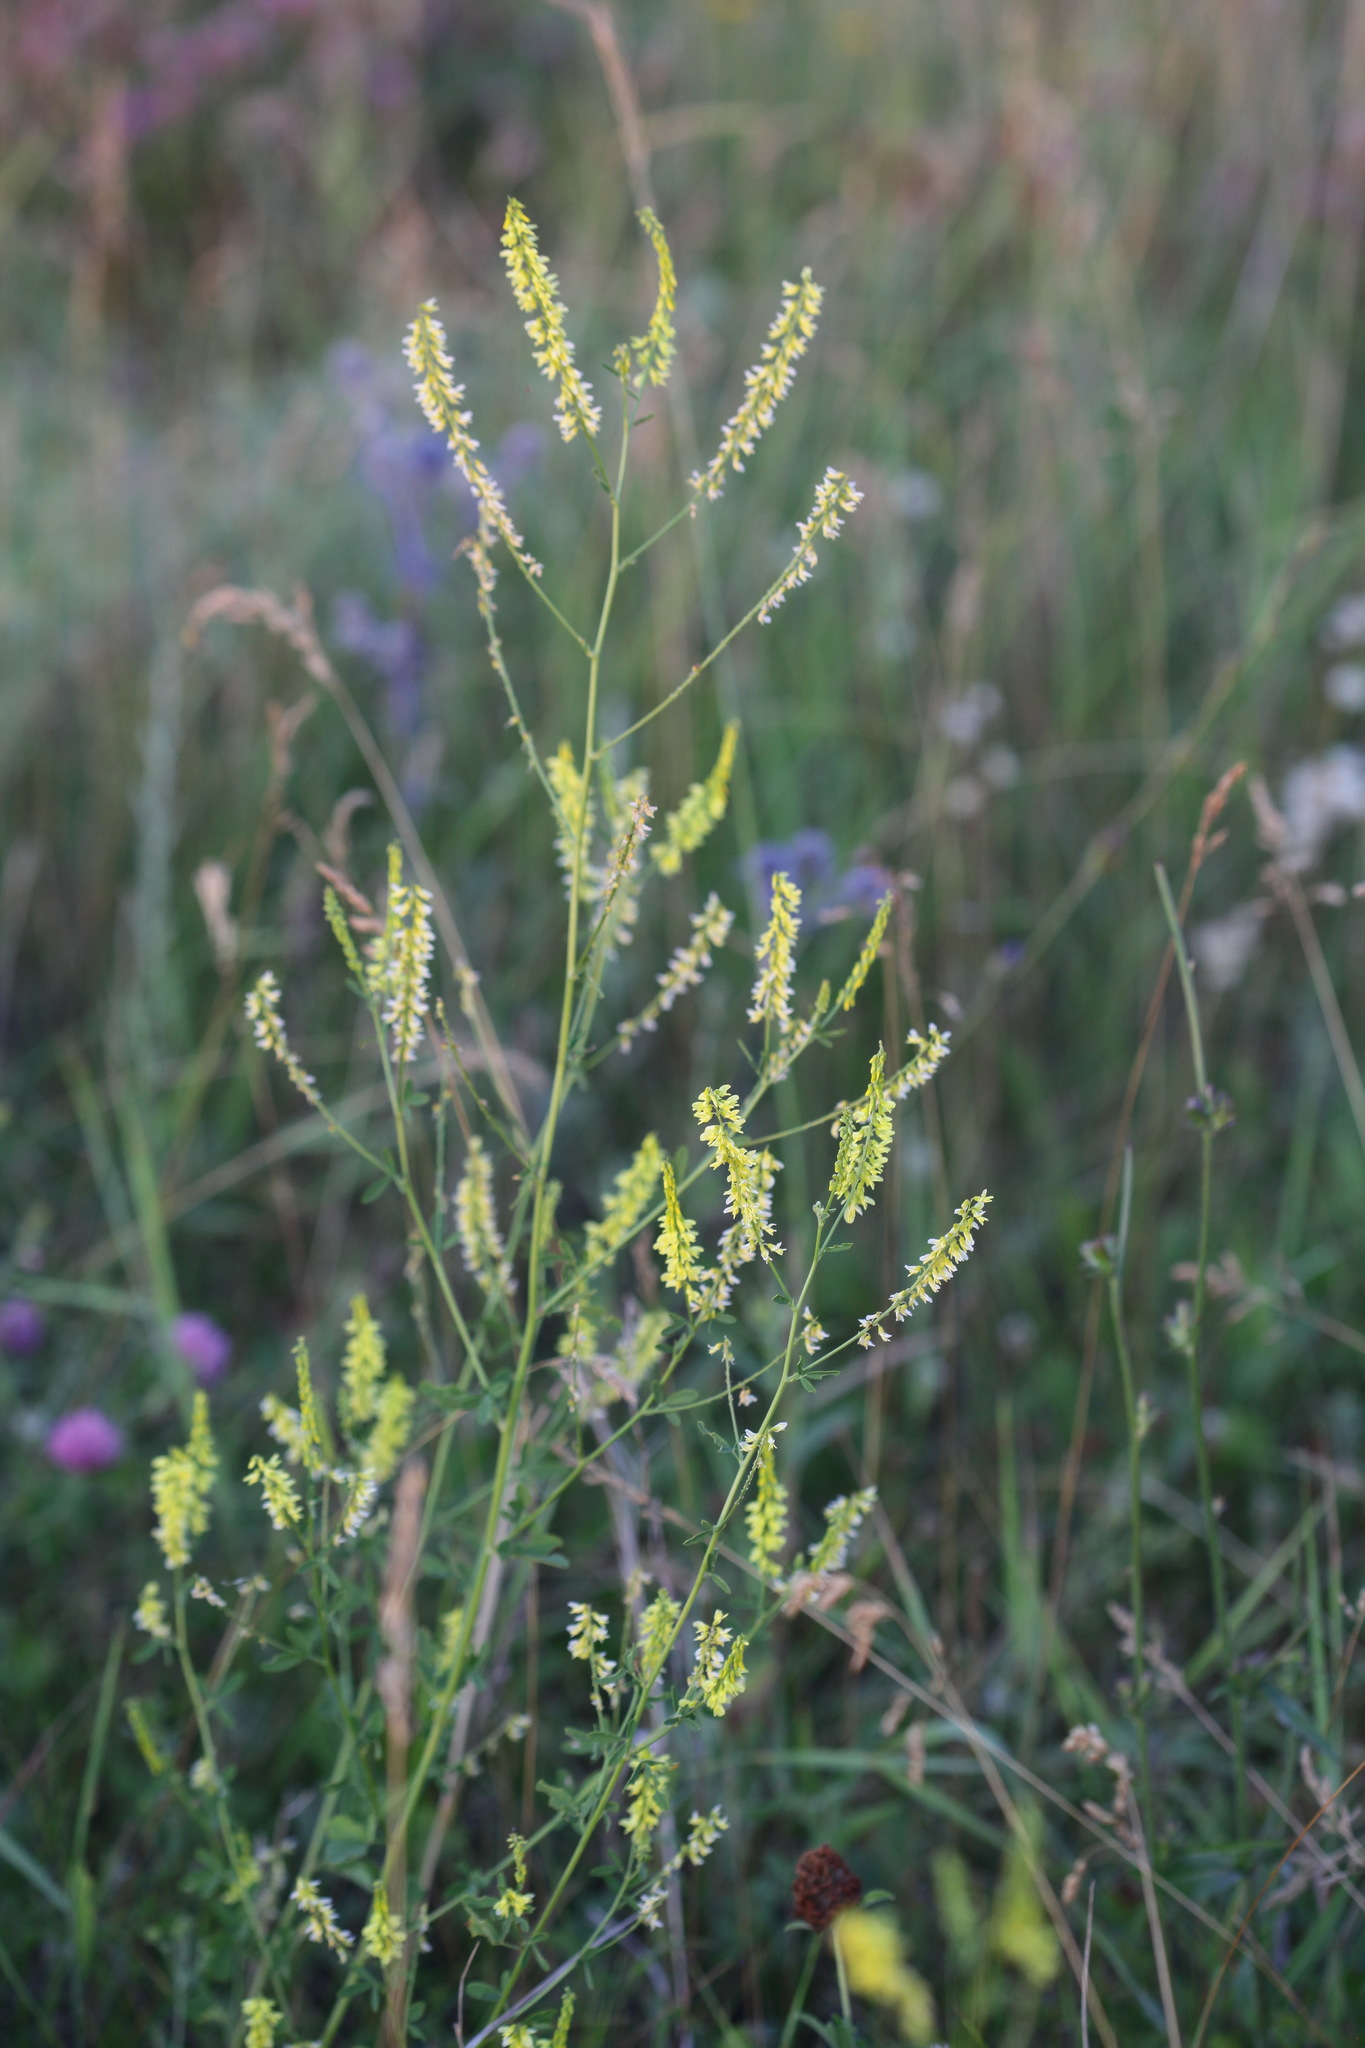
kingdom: Plantae
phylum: Tracheophyta
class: Magnoliopsida
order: Fabales
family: Fabaceae
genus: Melilotus
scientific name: Melilotus officinalis
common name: Sweetclover
